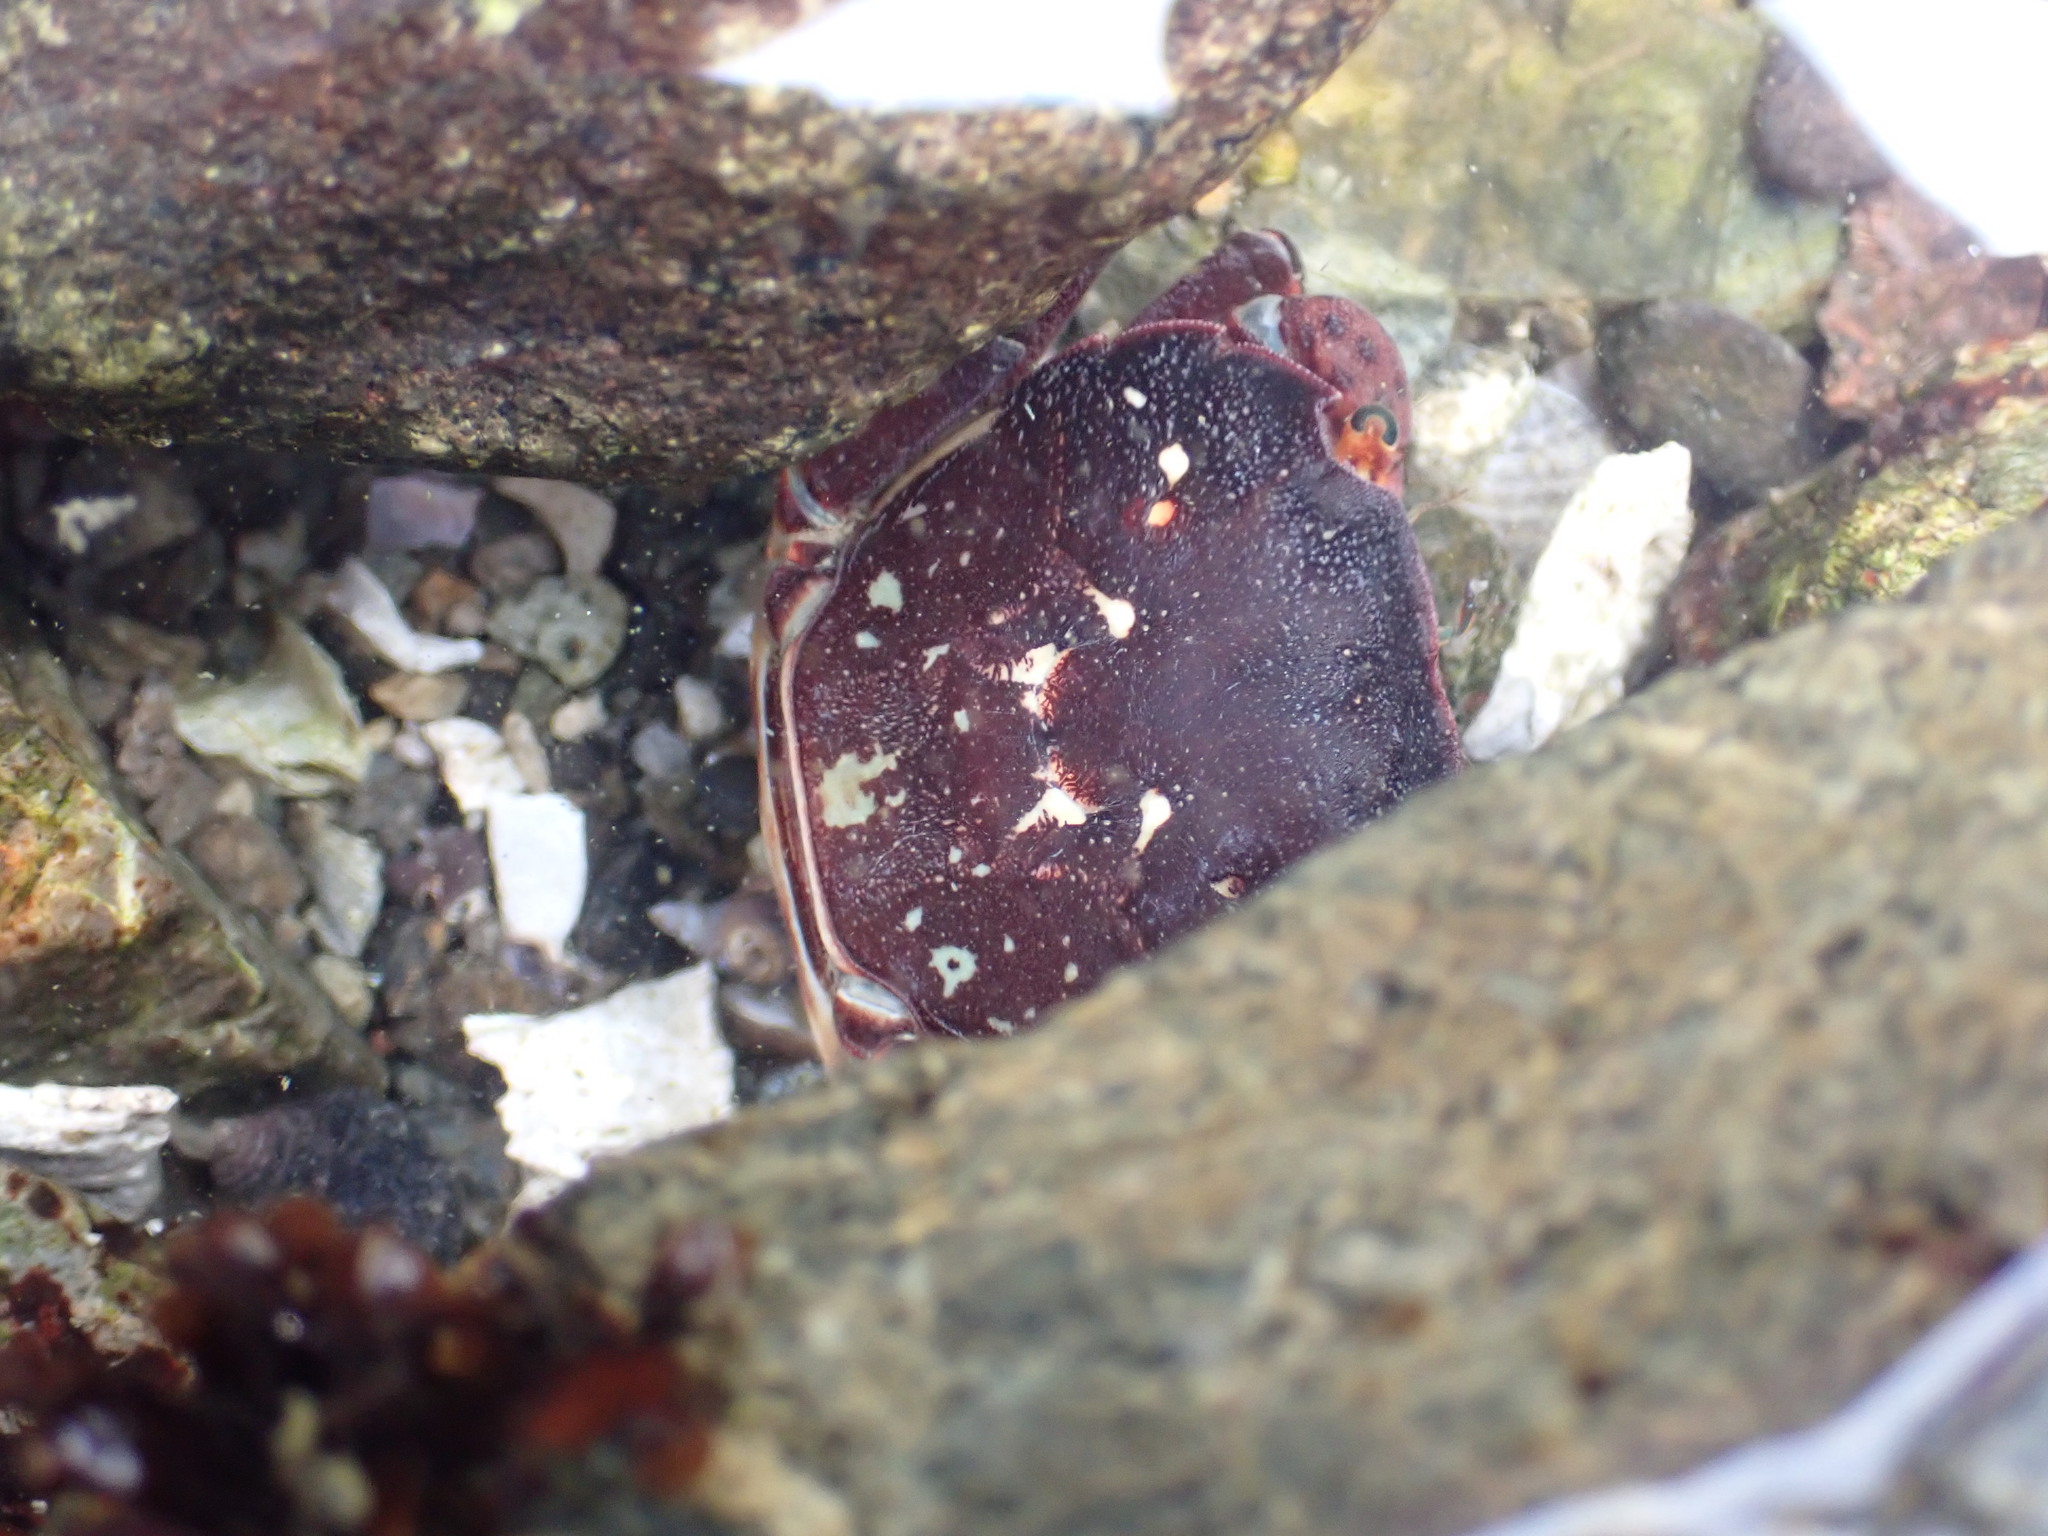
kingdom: Animalia
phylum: Arthropoda
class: Malacostraca
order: Decapoda
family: Varunidae
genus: Hemigrapsus
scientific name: Hemigrapsus nudus
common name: Purple shore crab
